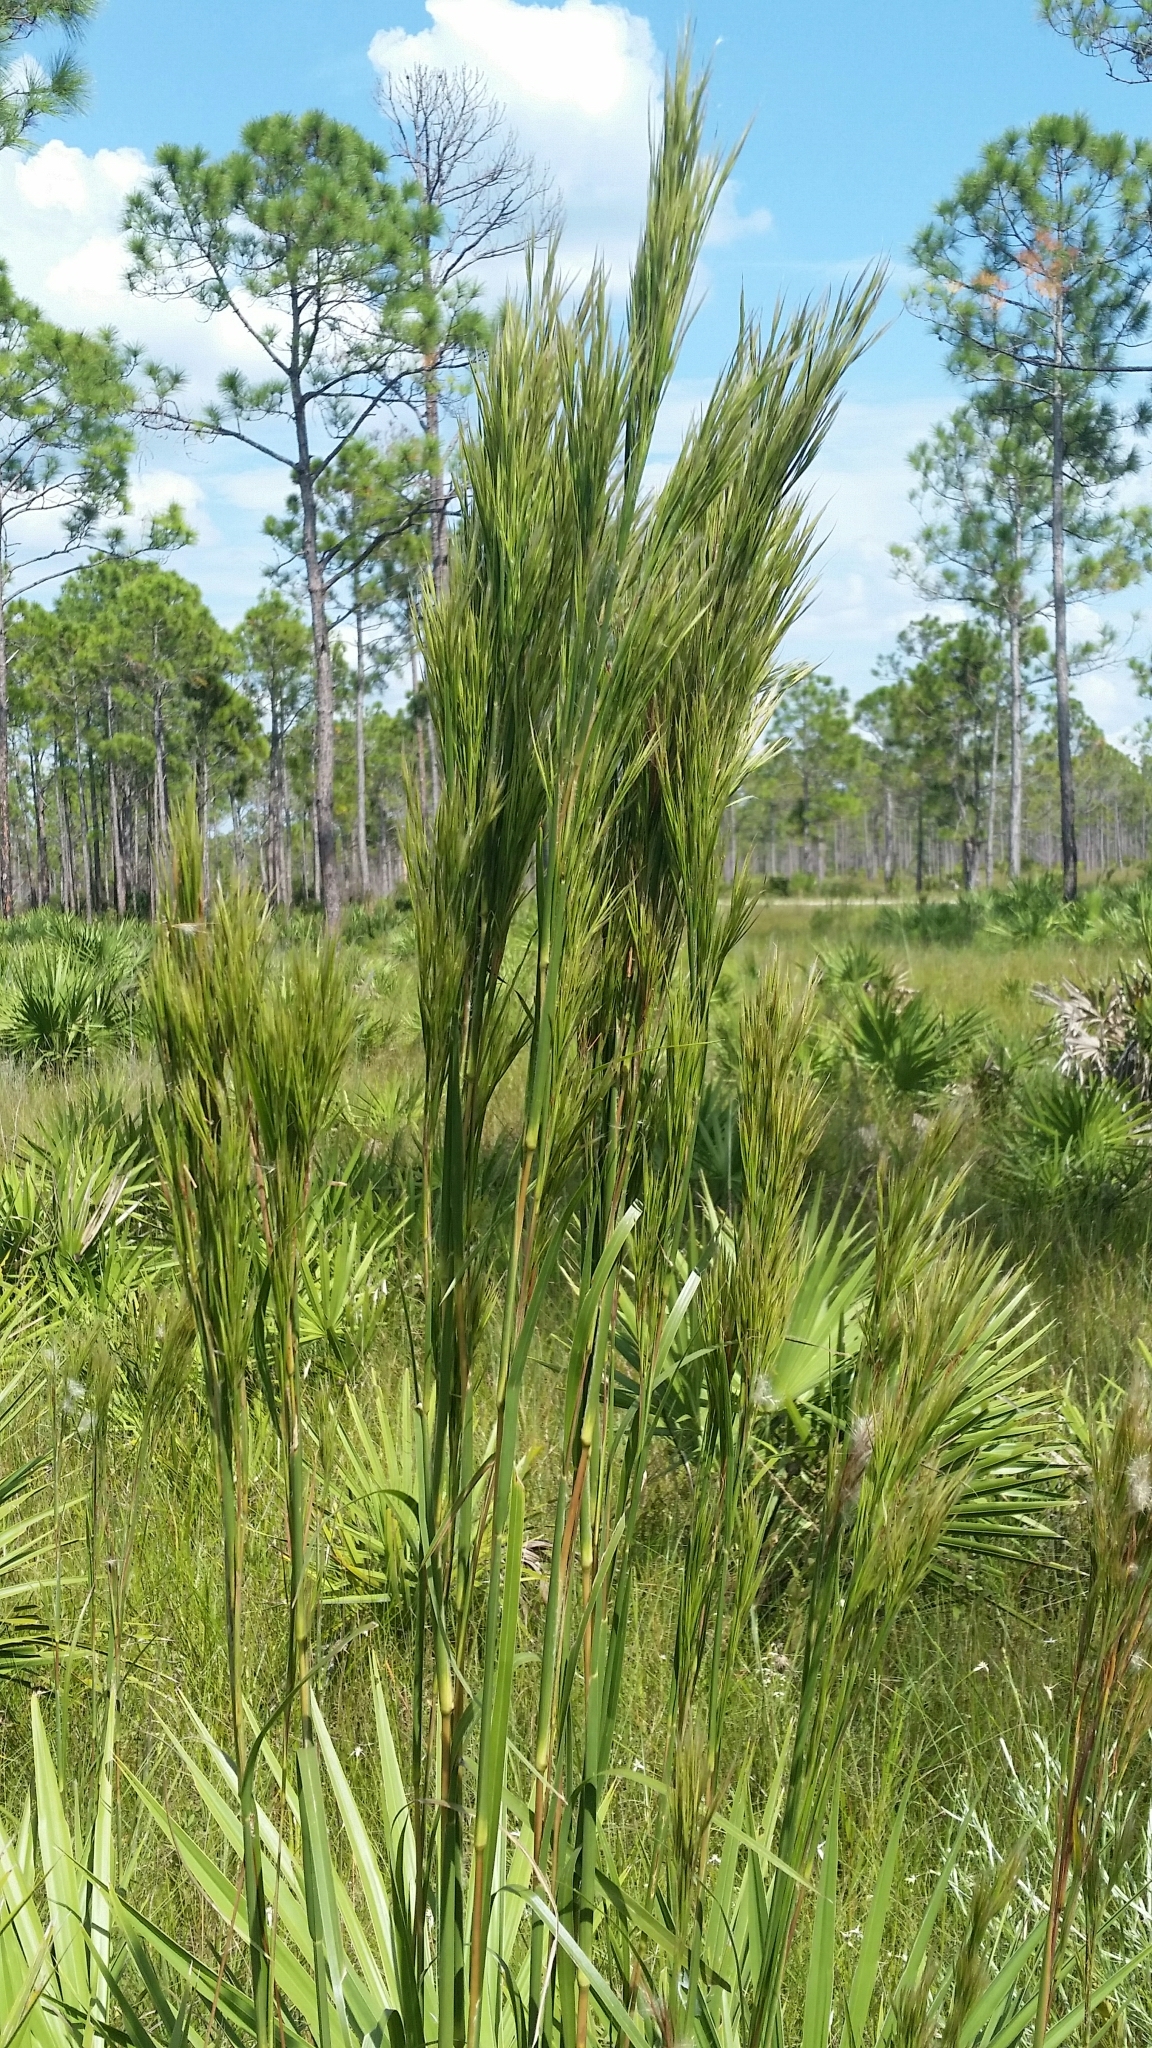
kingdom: Plantae
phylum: Tracheophyta
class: Liliopsida
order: Poales
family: Poaceae
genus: Andropogon
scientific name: Andropogon tenuispatheus
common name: Bushy bluestem
